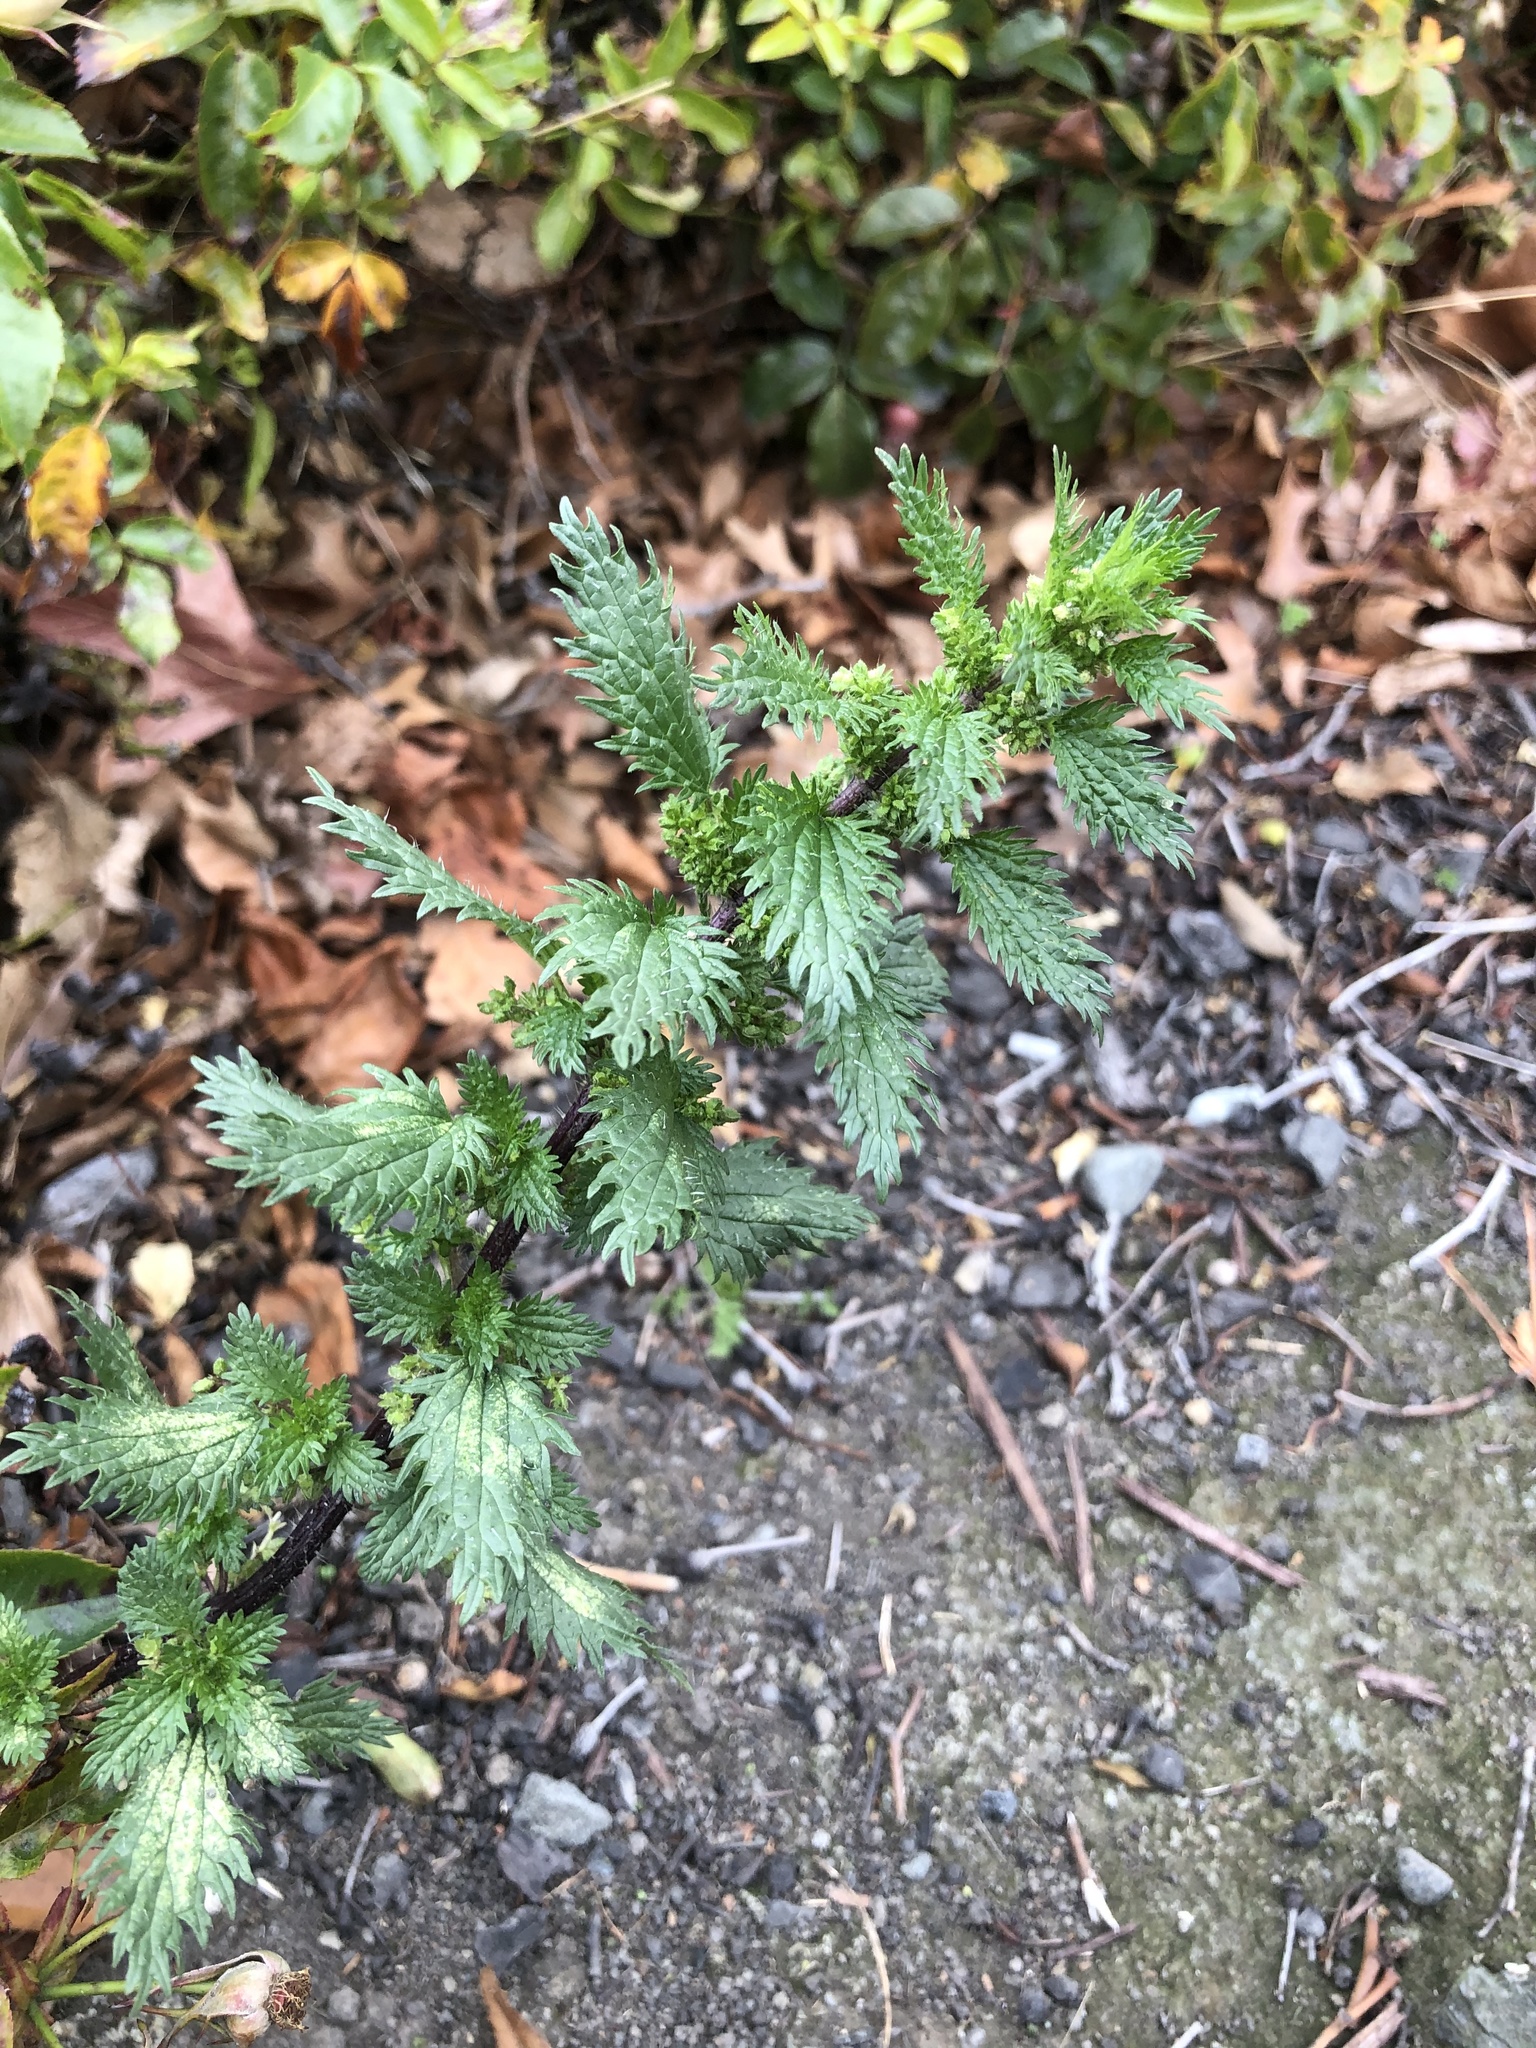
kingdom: Plantae
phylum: Tracheophyta
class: Magnoliopsida
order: Rosales
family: Urticaceae
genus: Urtica
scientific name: Urtica urens
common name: Dwarf nettle
